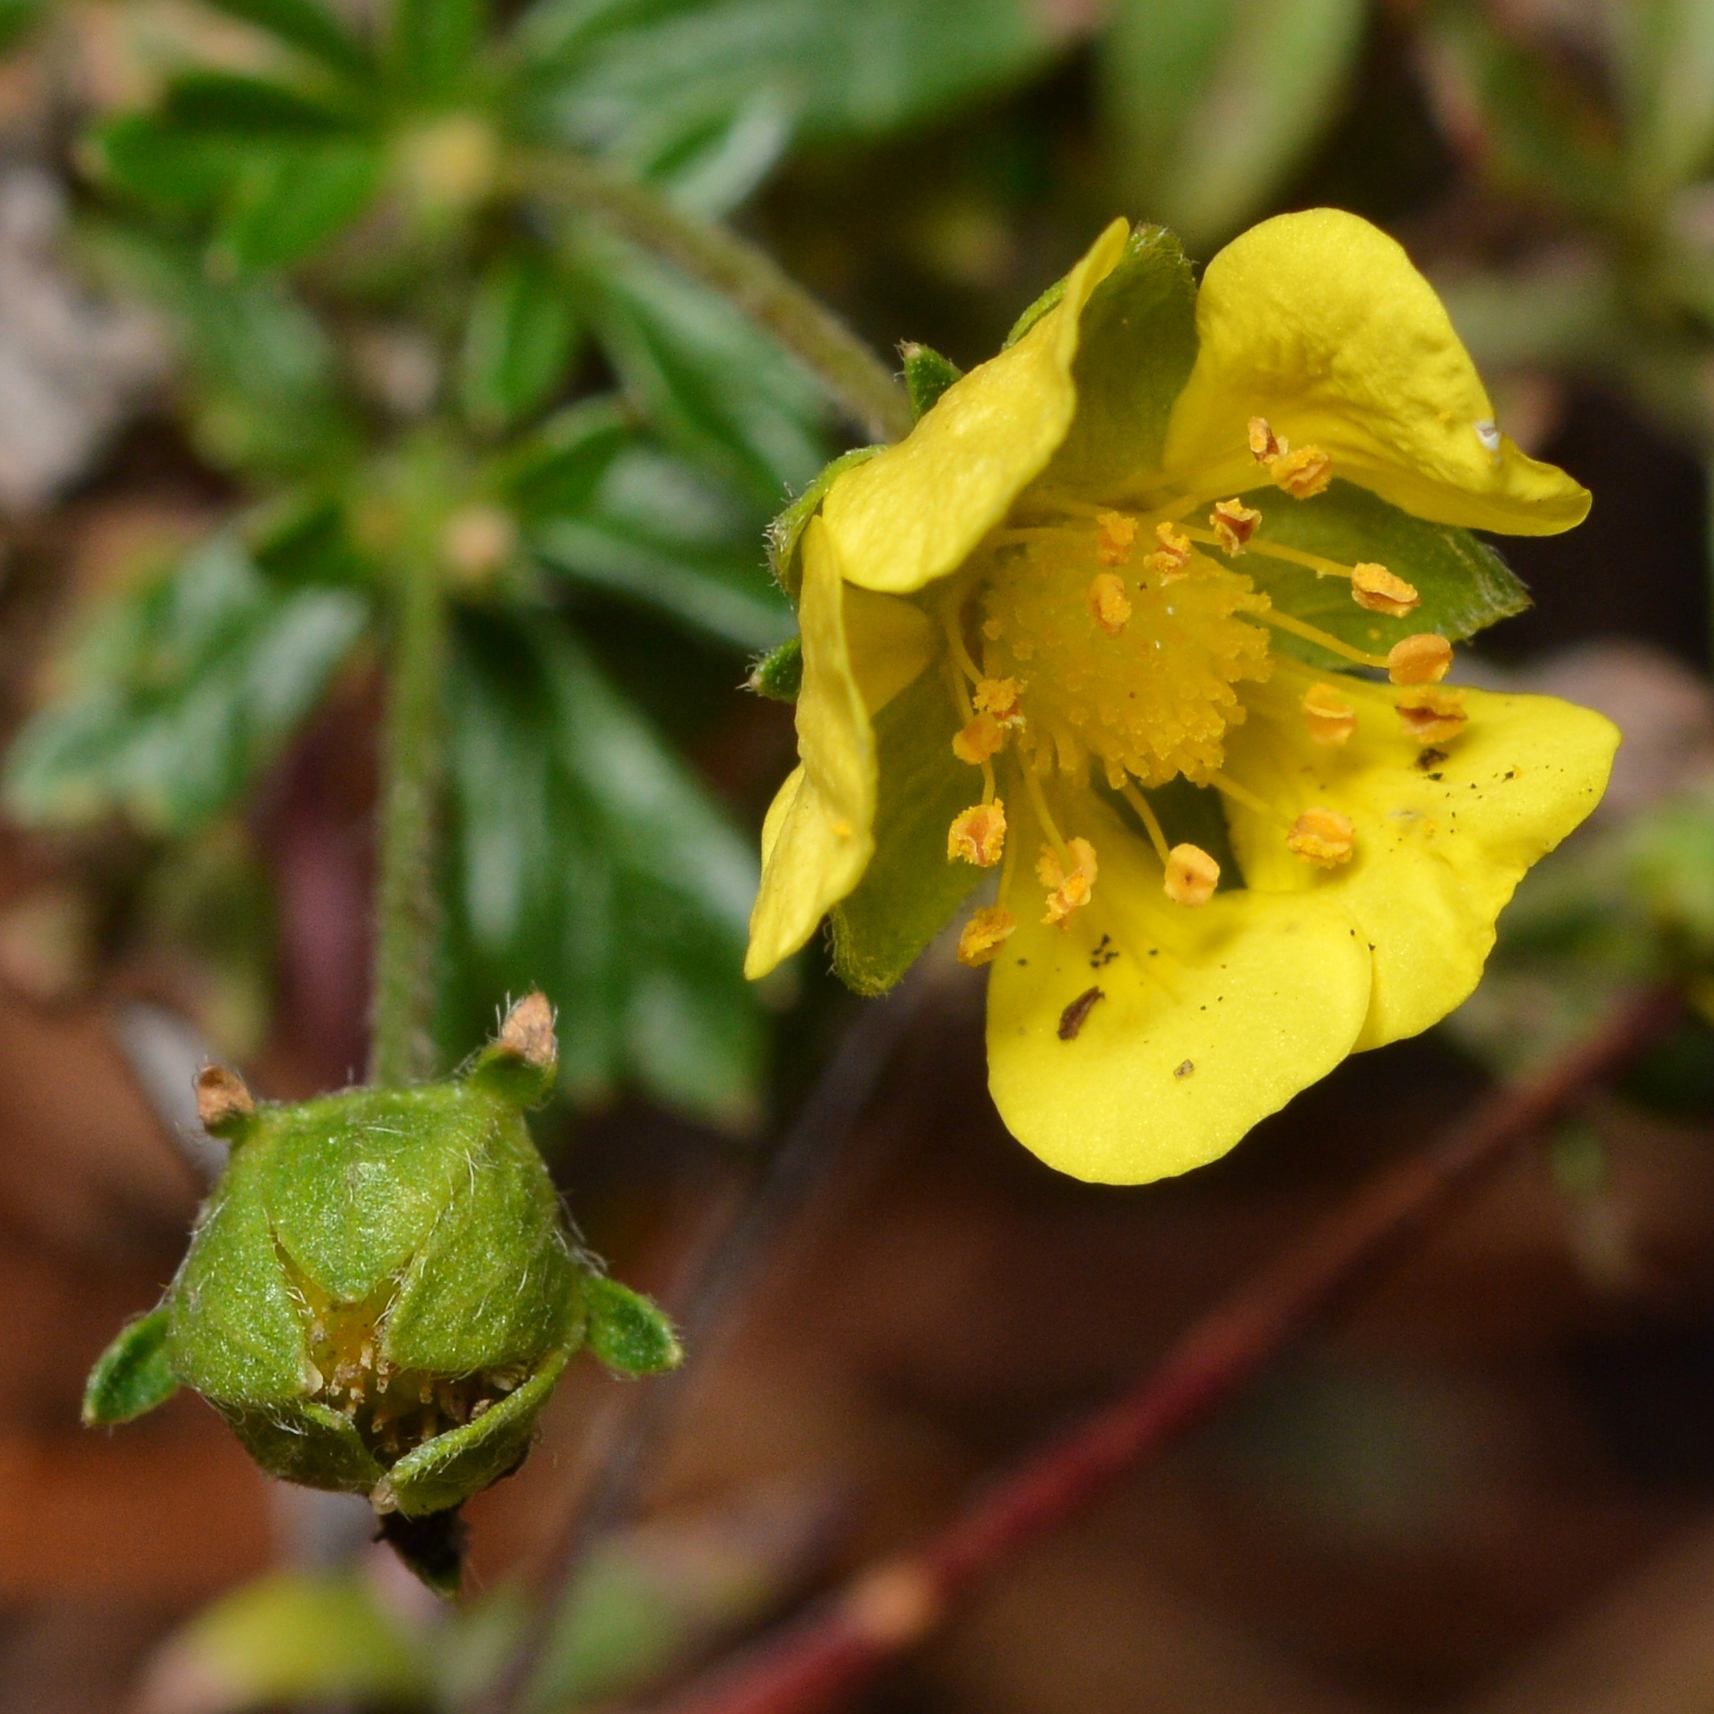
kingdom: Plantae
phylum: Tracheophyta
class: Magnoliopsida
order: Rosales
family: Rosaceae
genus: Potentilla
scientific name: Potentilla argentea
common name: Hoary cinquefoil
